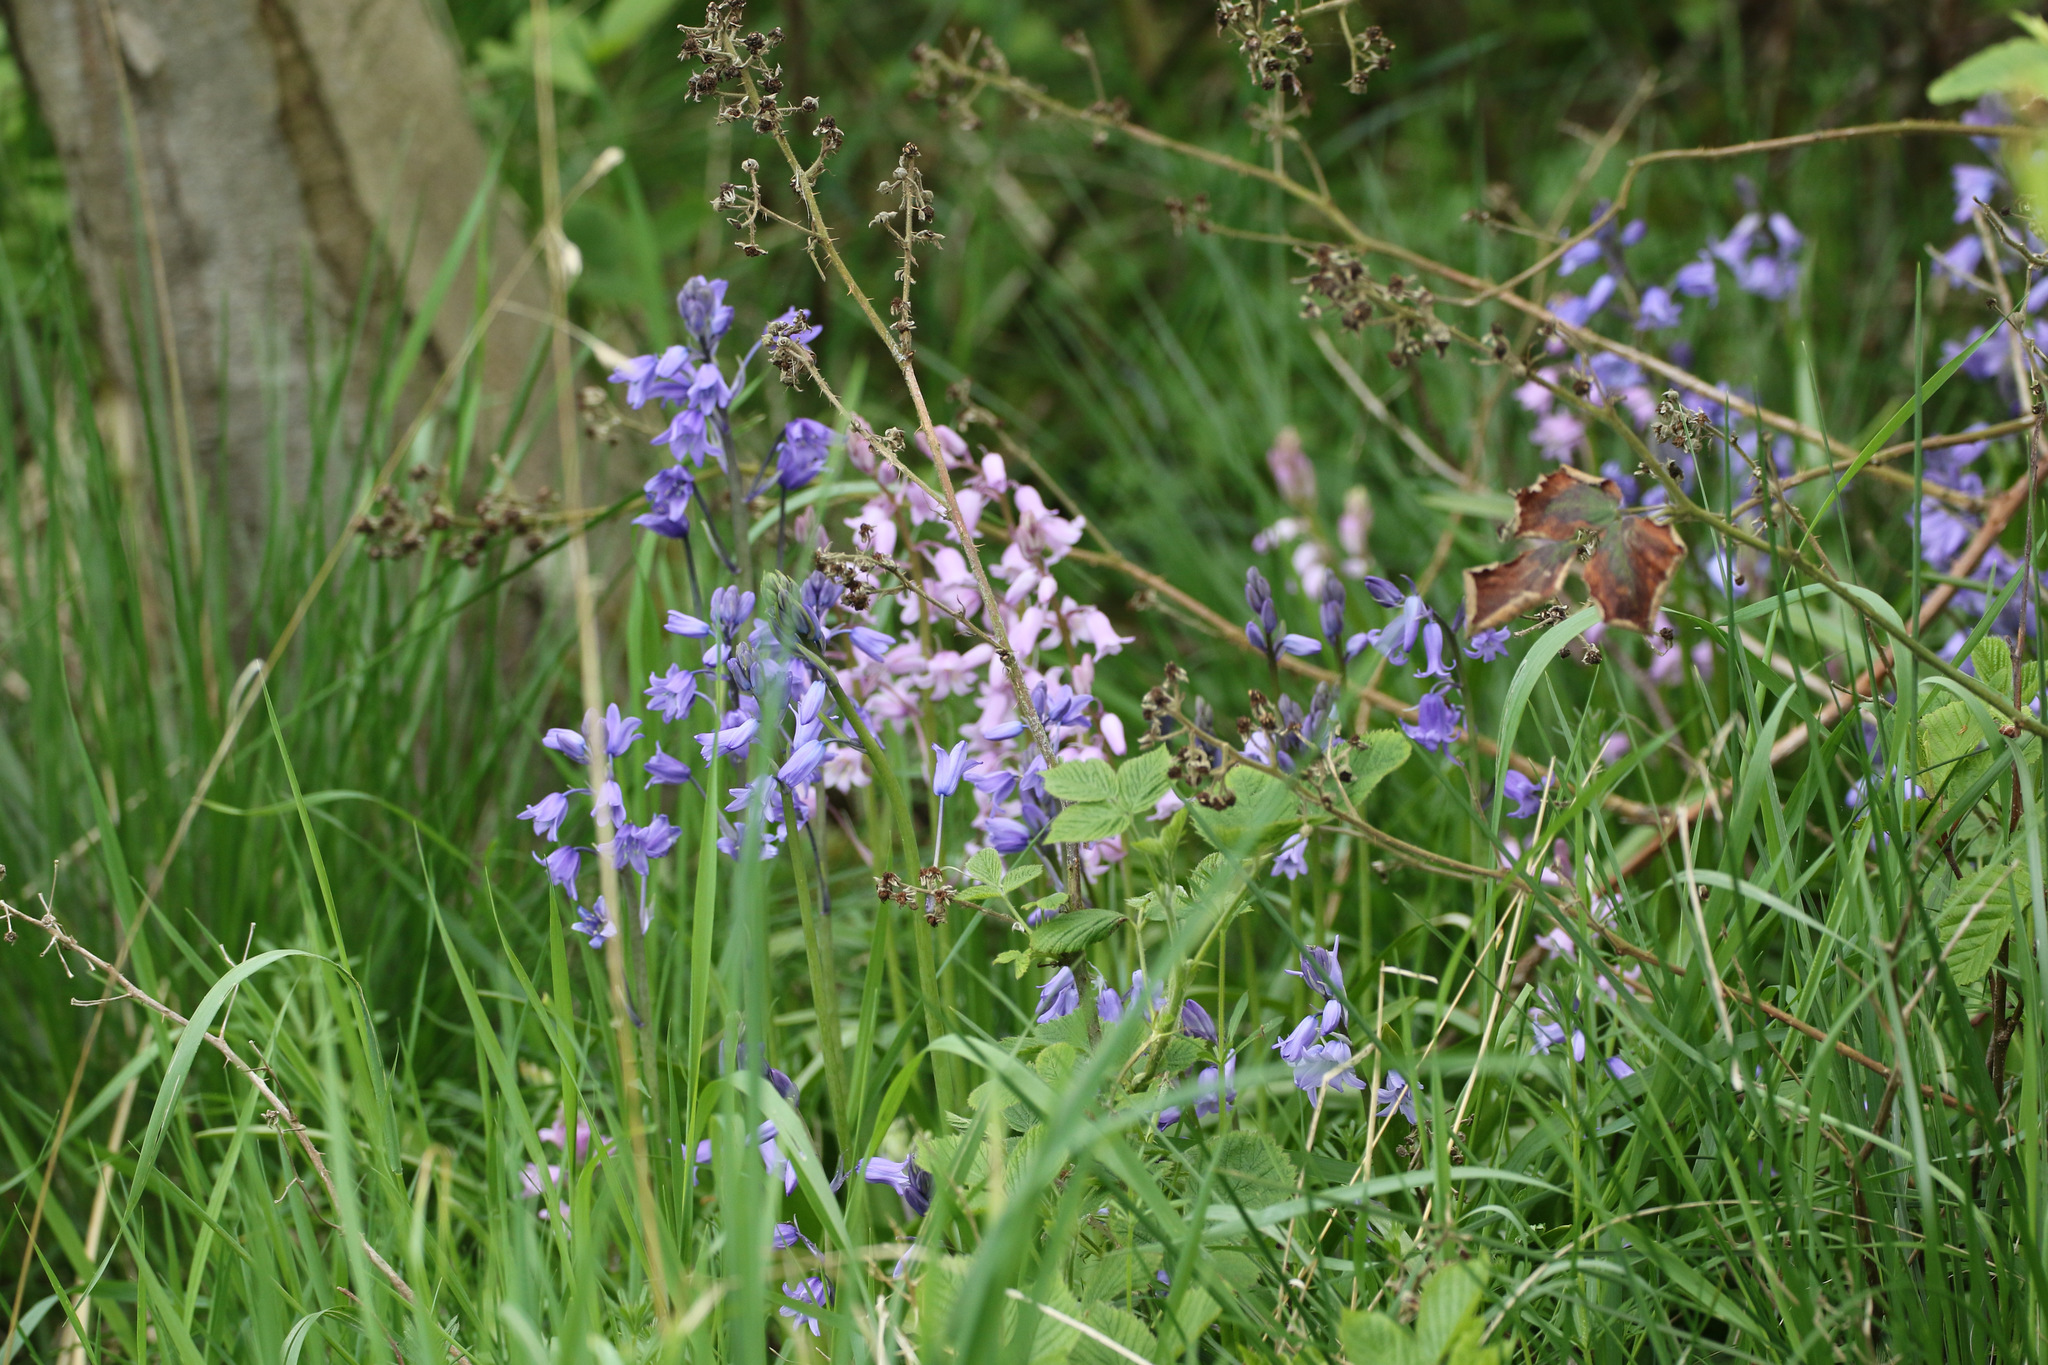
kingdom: Plantae
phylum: Tracheophyta
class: Liliopsida
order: Asparagales
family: Asparagaceae
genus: Hyacinthoides
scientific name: Hyacinthoides hispanica
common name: Spanish bluebell
